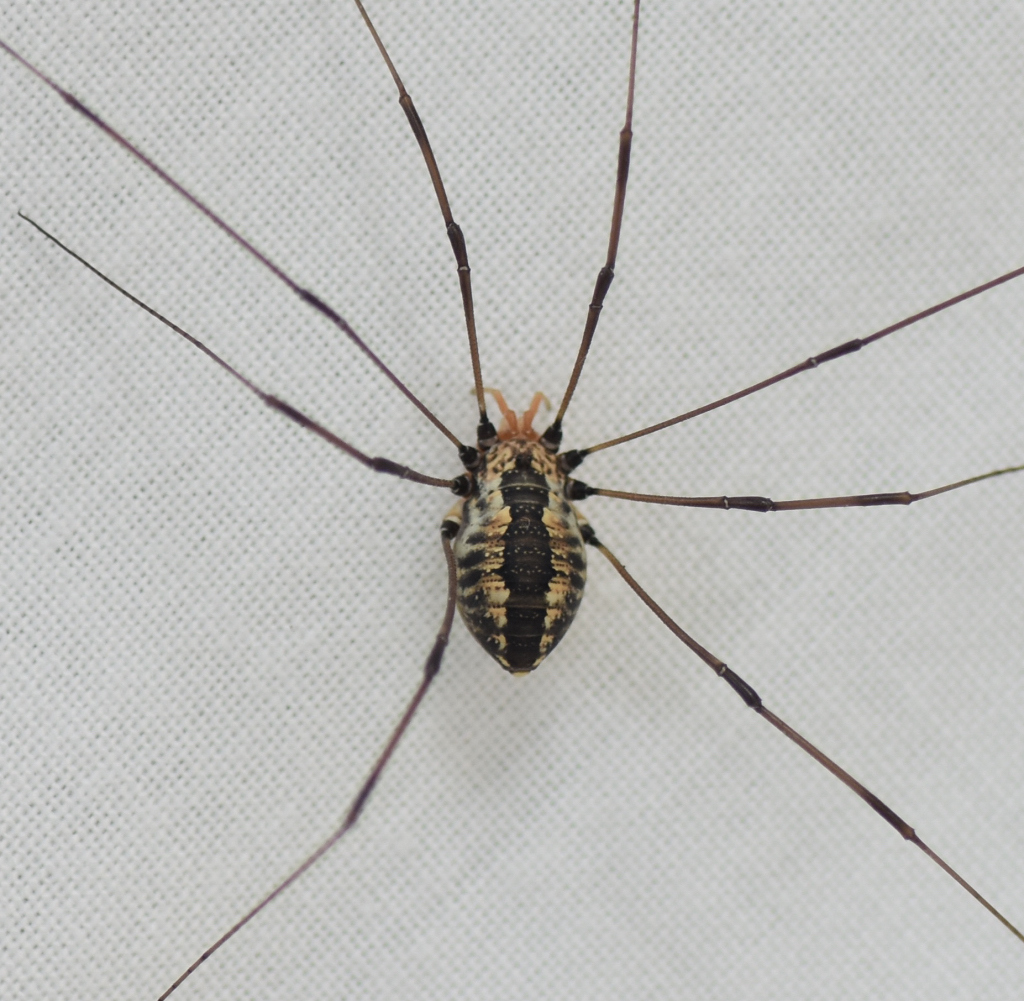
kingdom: Animalia
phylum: Arthropoda
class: Arachnida
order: Opiliones
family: Sclerosomatidae
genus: Leiobunum
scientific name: Leiobunum vittatum
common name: Eastern harvestman
